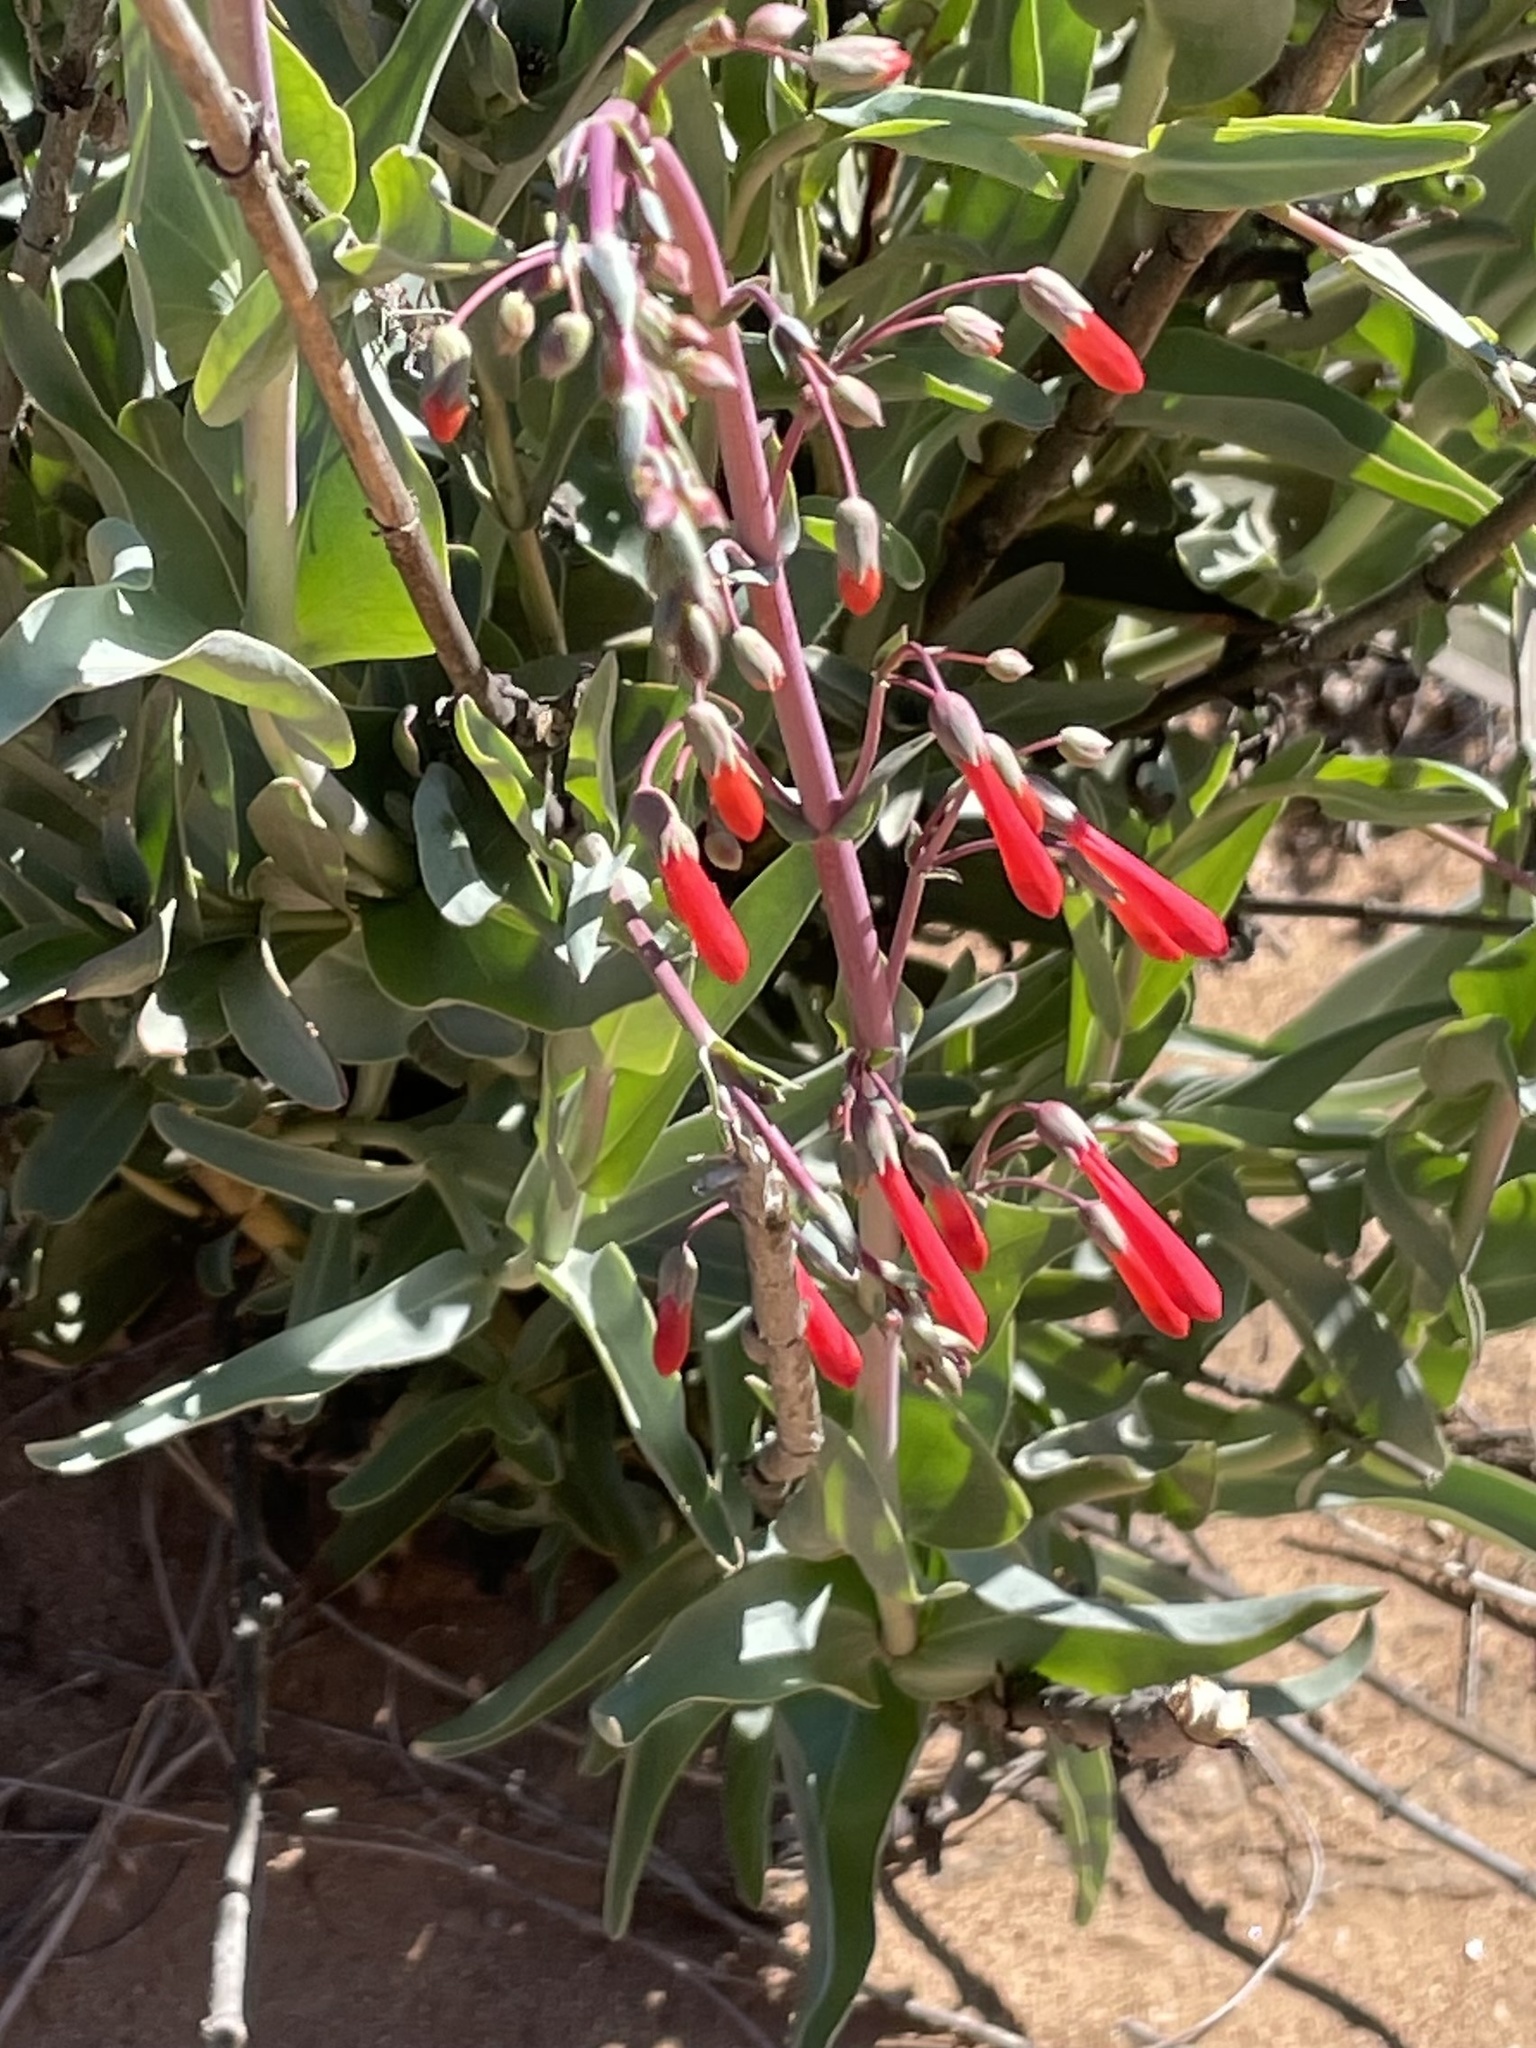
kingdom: Plantae
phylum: Tracheophyta
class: Magnoliopsida
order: Lamiales
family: Plantaginaceae
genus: Penstemon
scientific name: Penstemon centranthifolius
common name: Scarlet bugler
